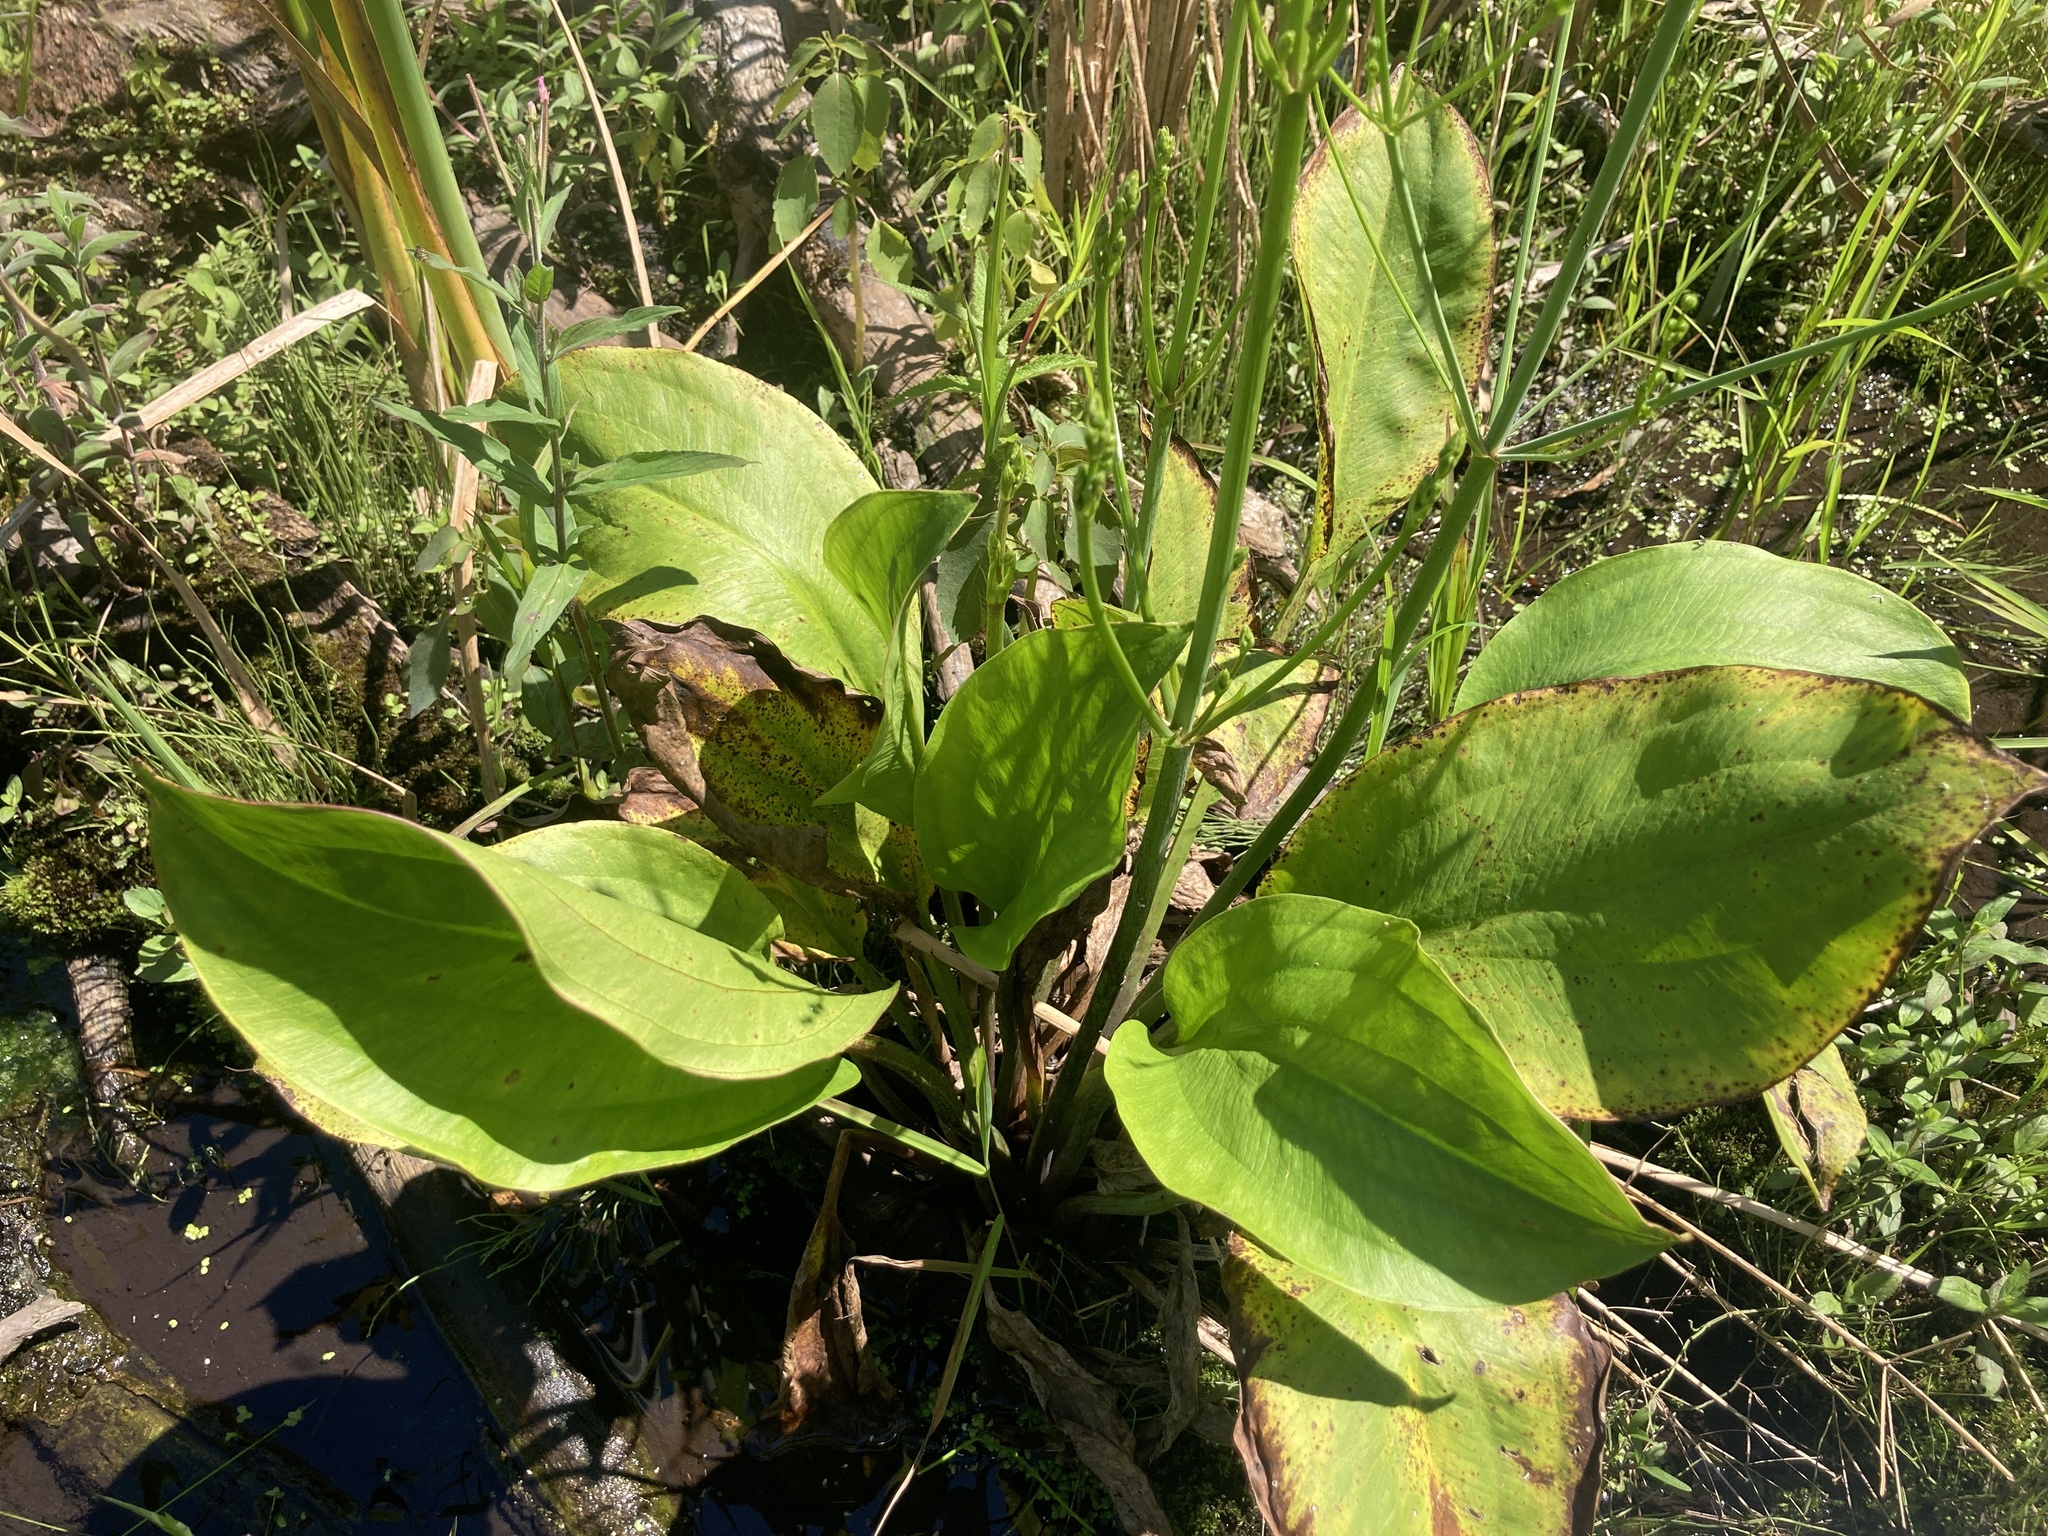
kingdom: Plantae
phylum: Tracheophyta
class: Liliopsida
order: Alismatales
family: Alismataceae
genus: Alisma
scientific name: Alisma
